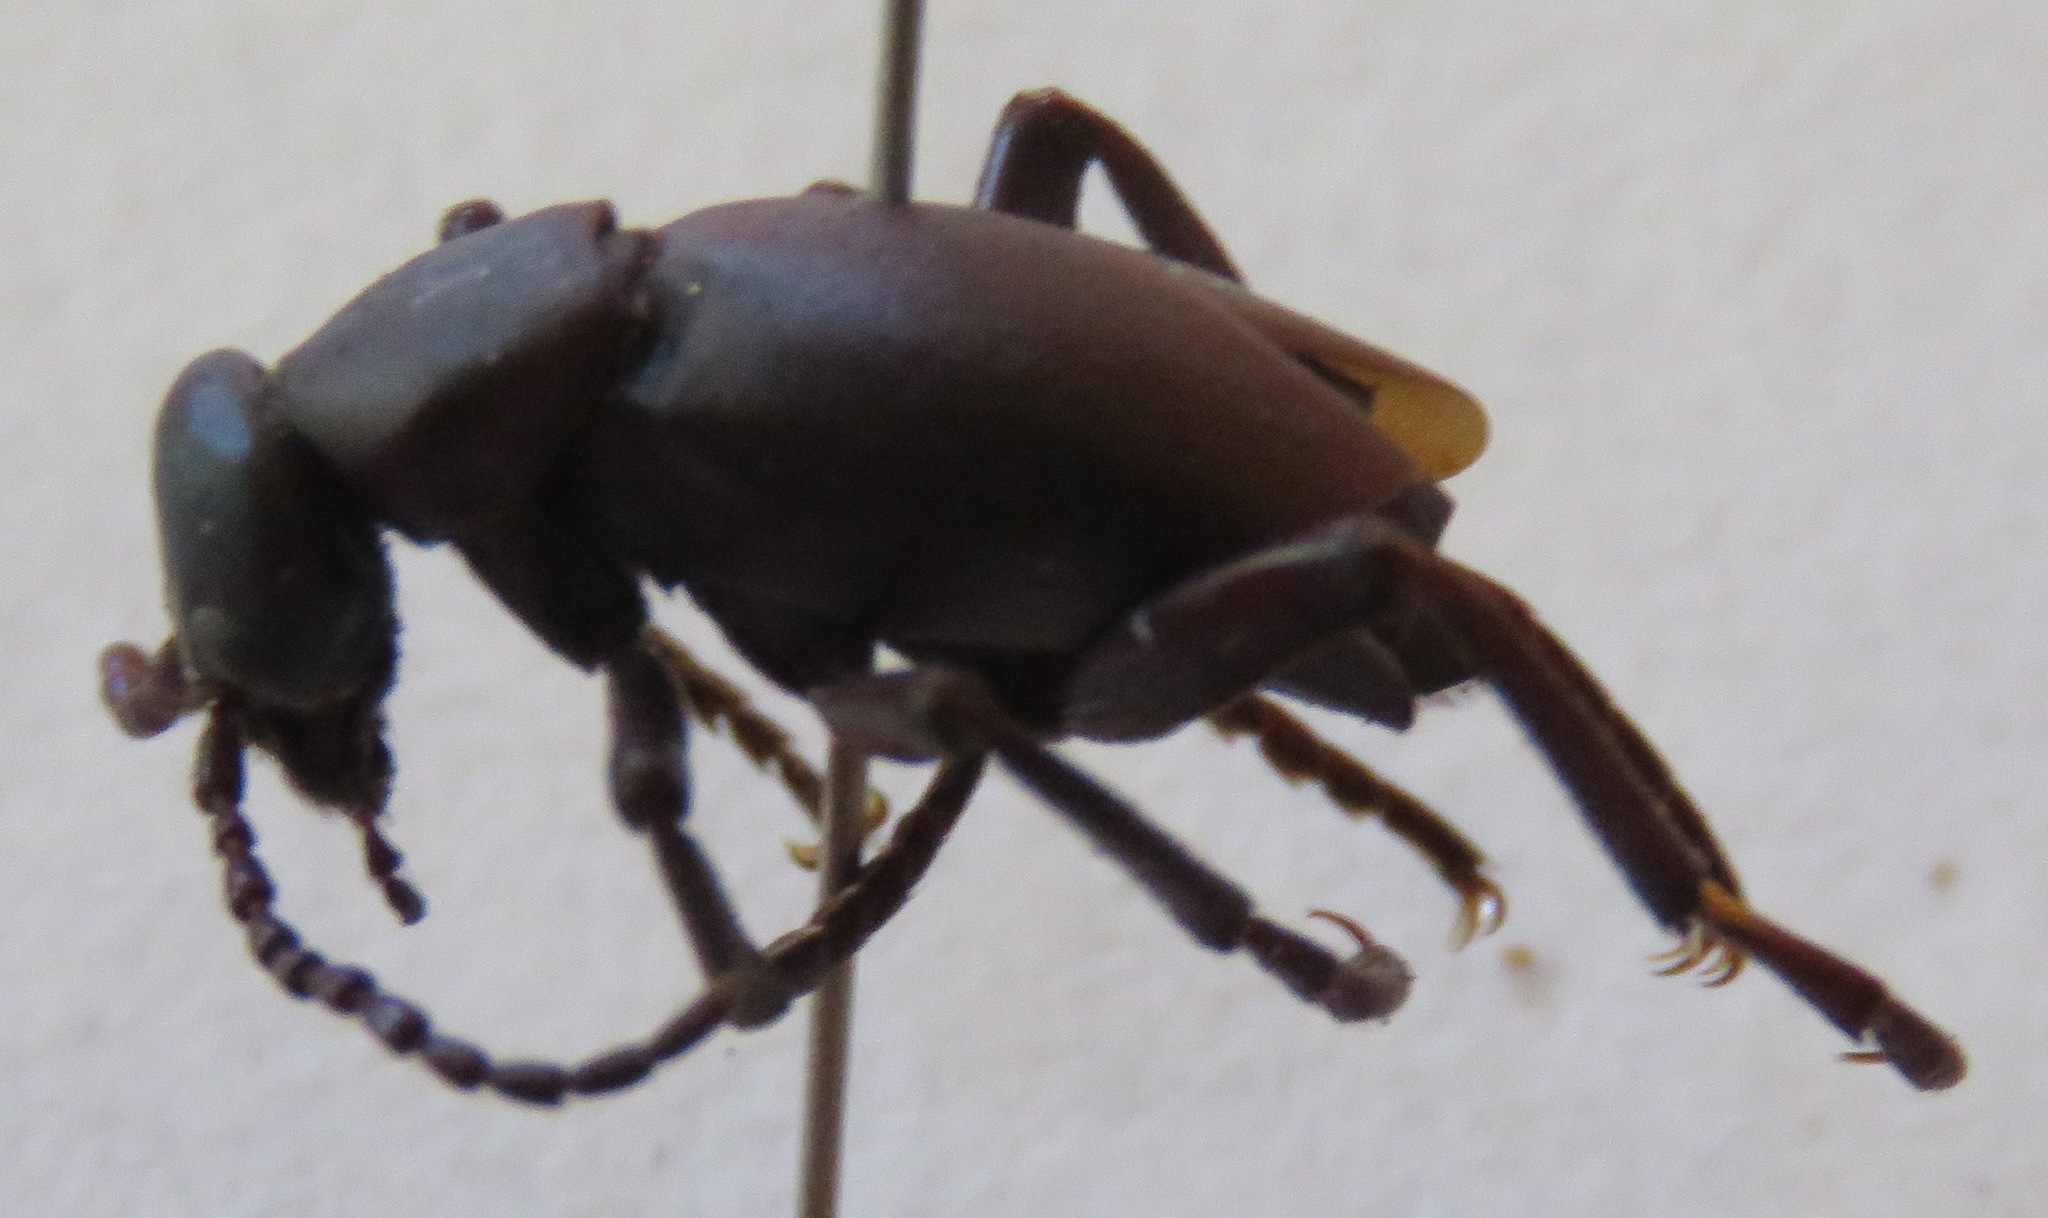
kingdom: Animalia
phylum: Arthropoda
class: Insecta
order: Coleoptera
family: Meloidae
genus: Meloe
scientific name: Meloe tropicus
